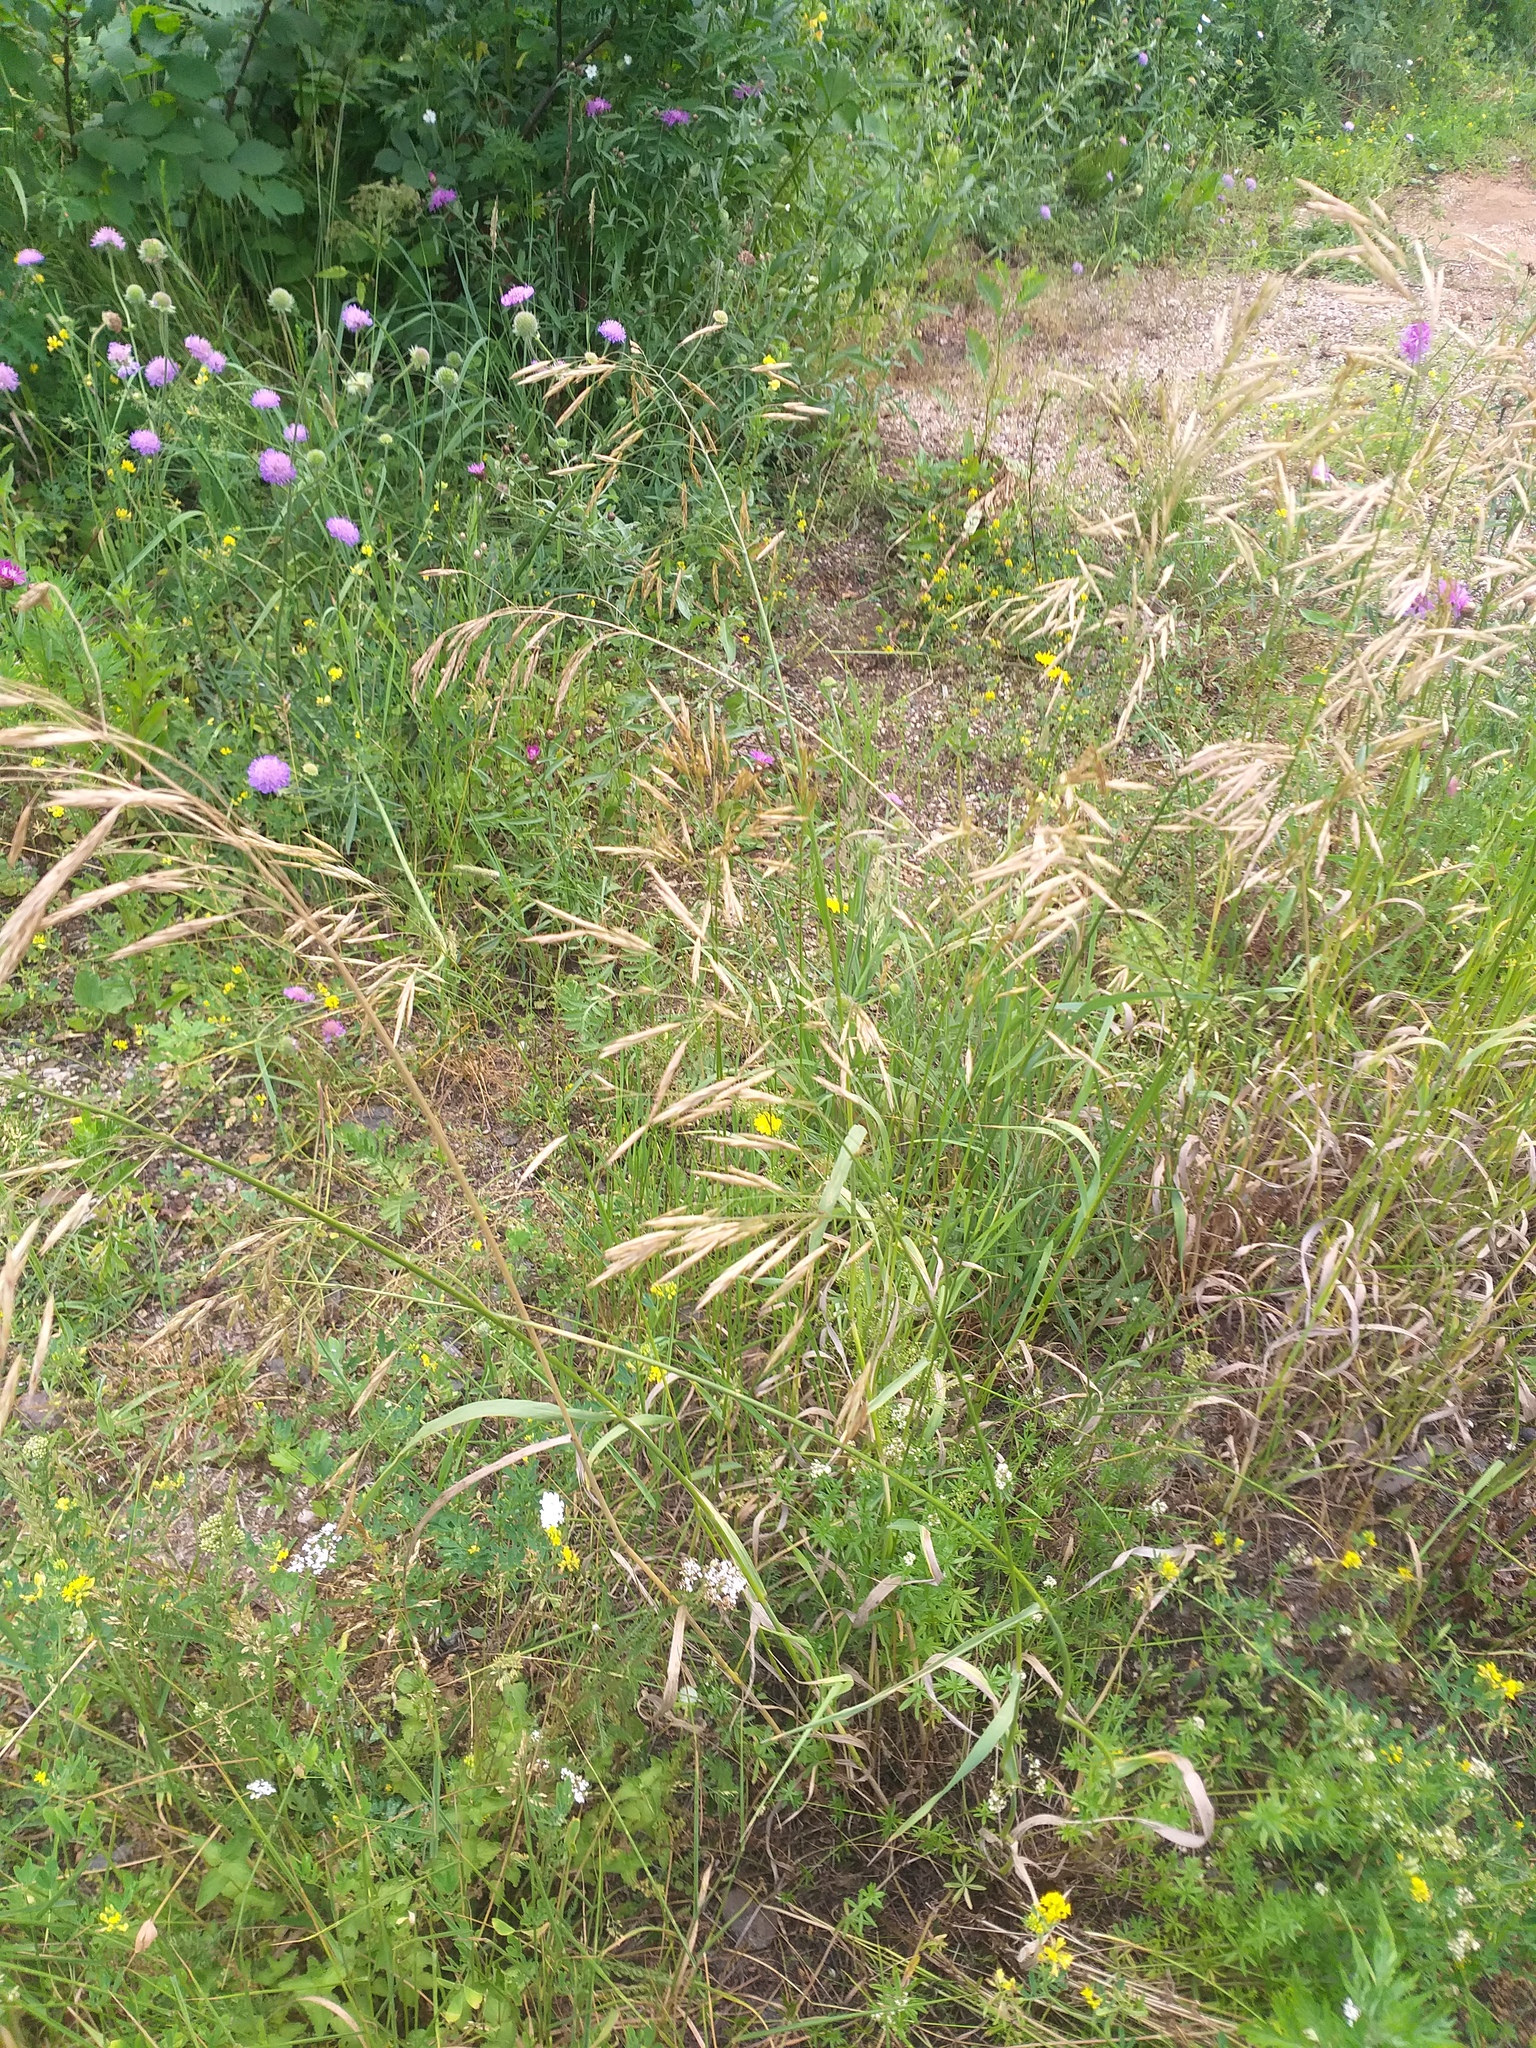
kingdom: Plantae
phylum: Tracheophyta
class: Liliopsida
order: Poales
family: Poaceae
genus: Bromus
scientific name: Bromus inermis
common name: Smooth brome
